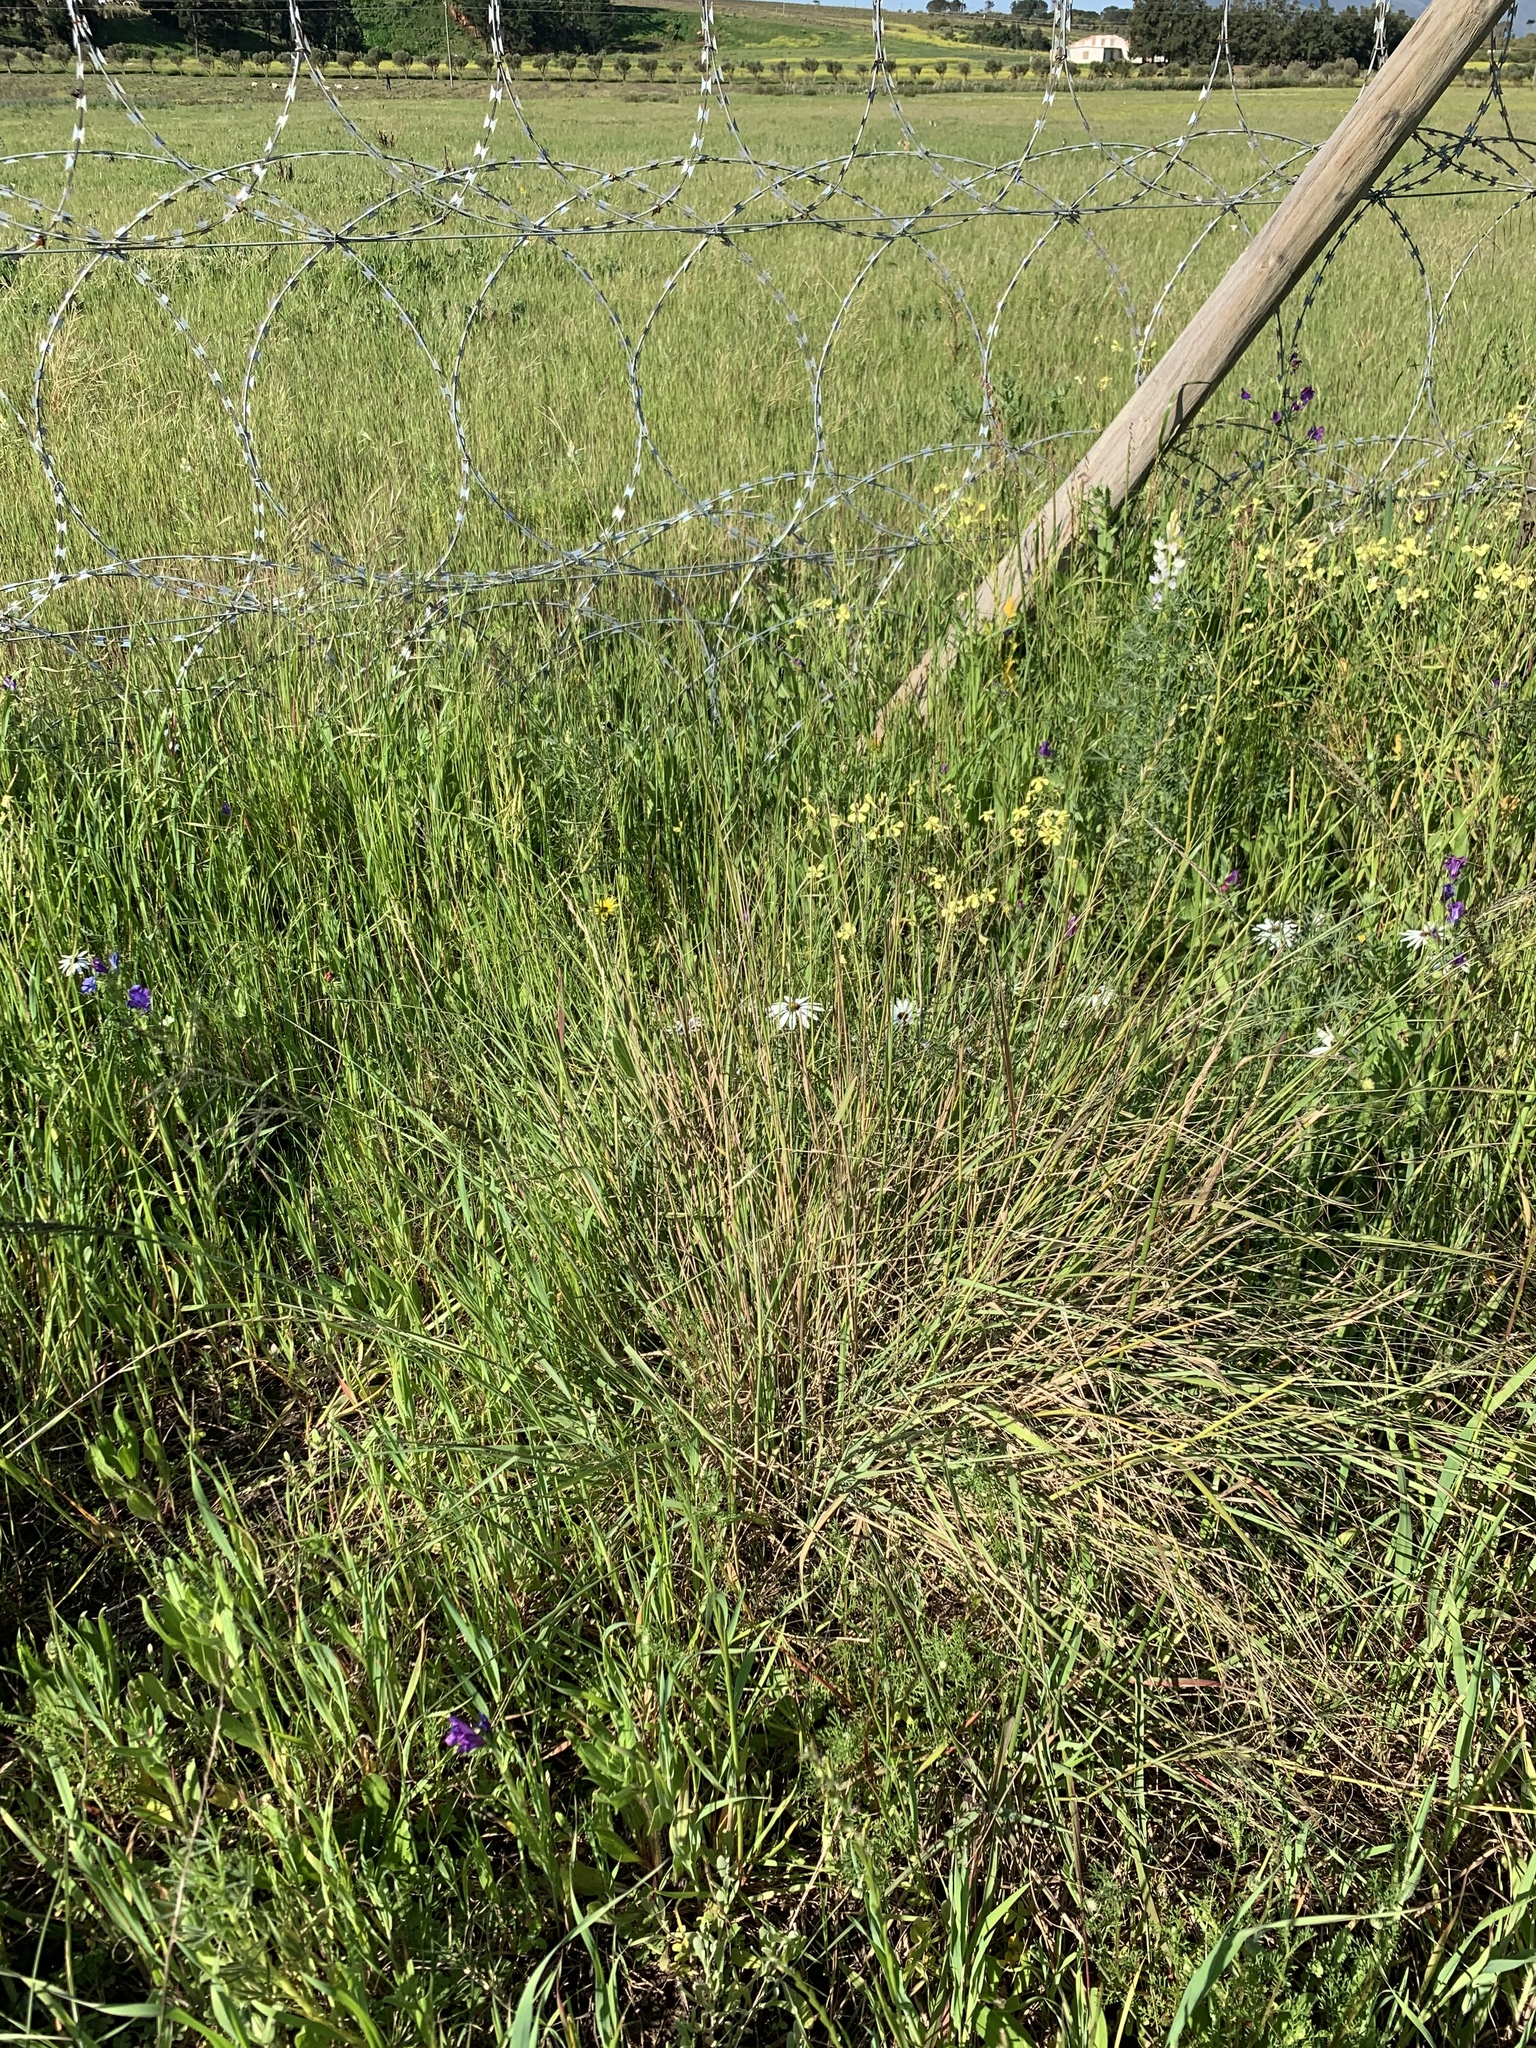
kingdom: Plantae
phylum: Tracheophyta
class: Liliopsida
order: Poales
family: Poaceae
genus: Eragrostis
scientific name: Eragrostis curvula
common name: African love-grass
